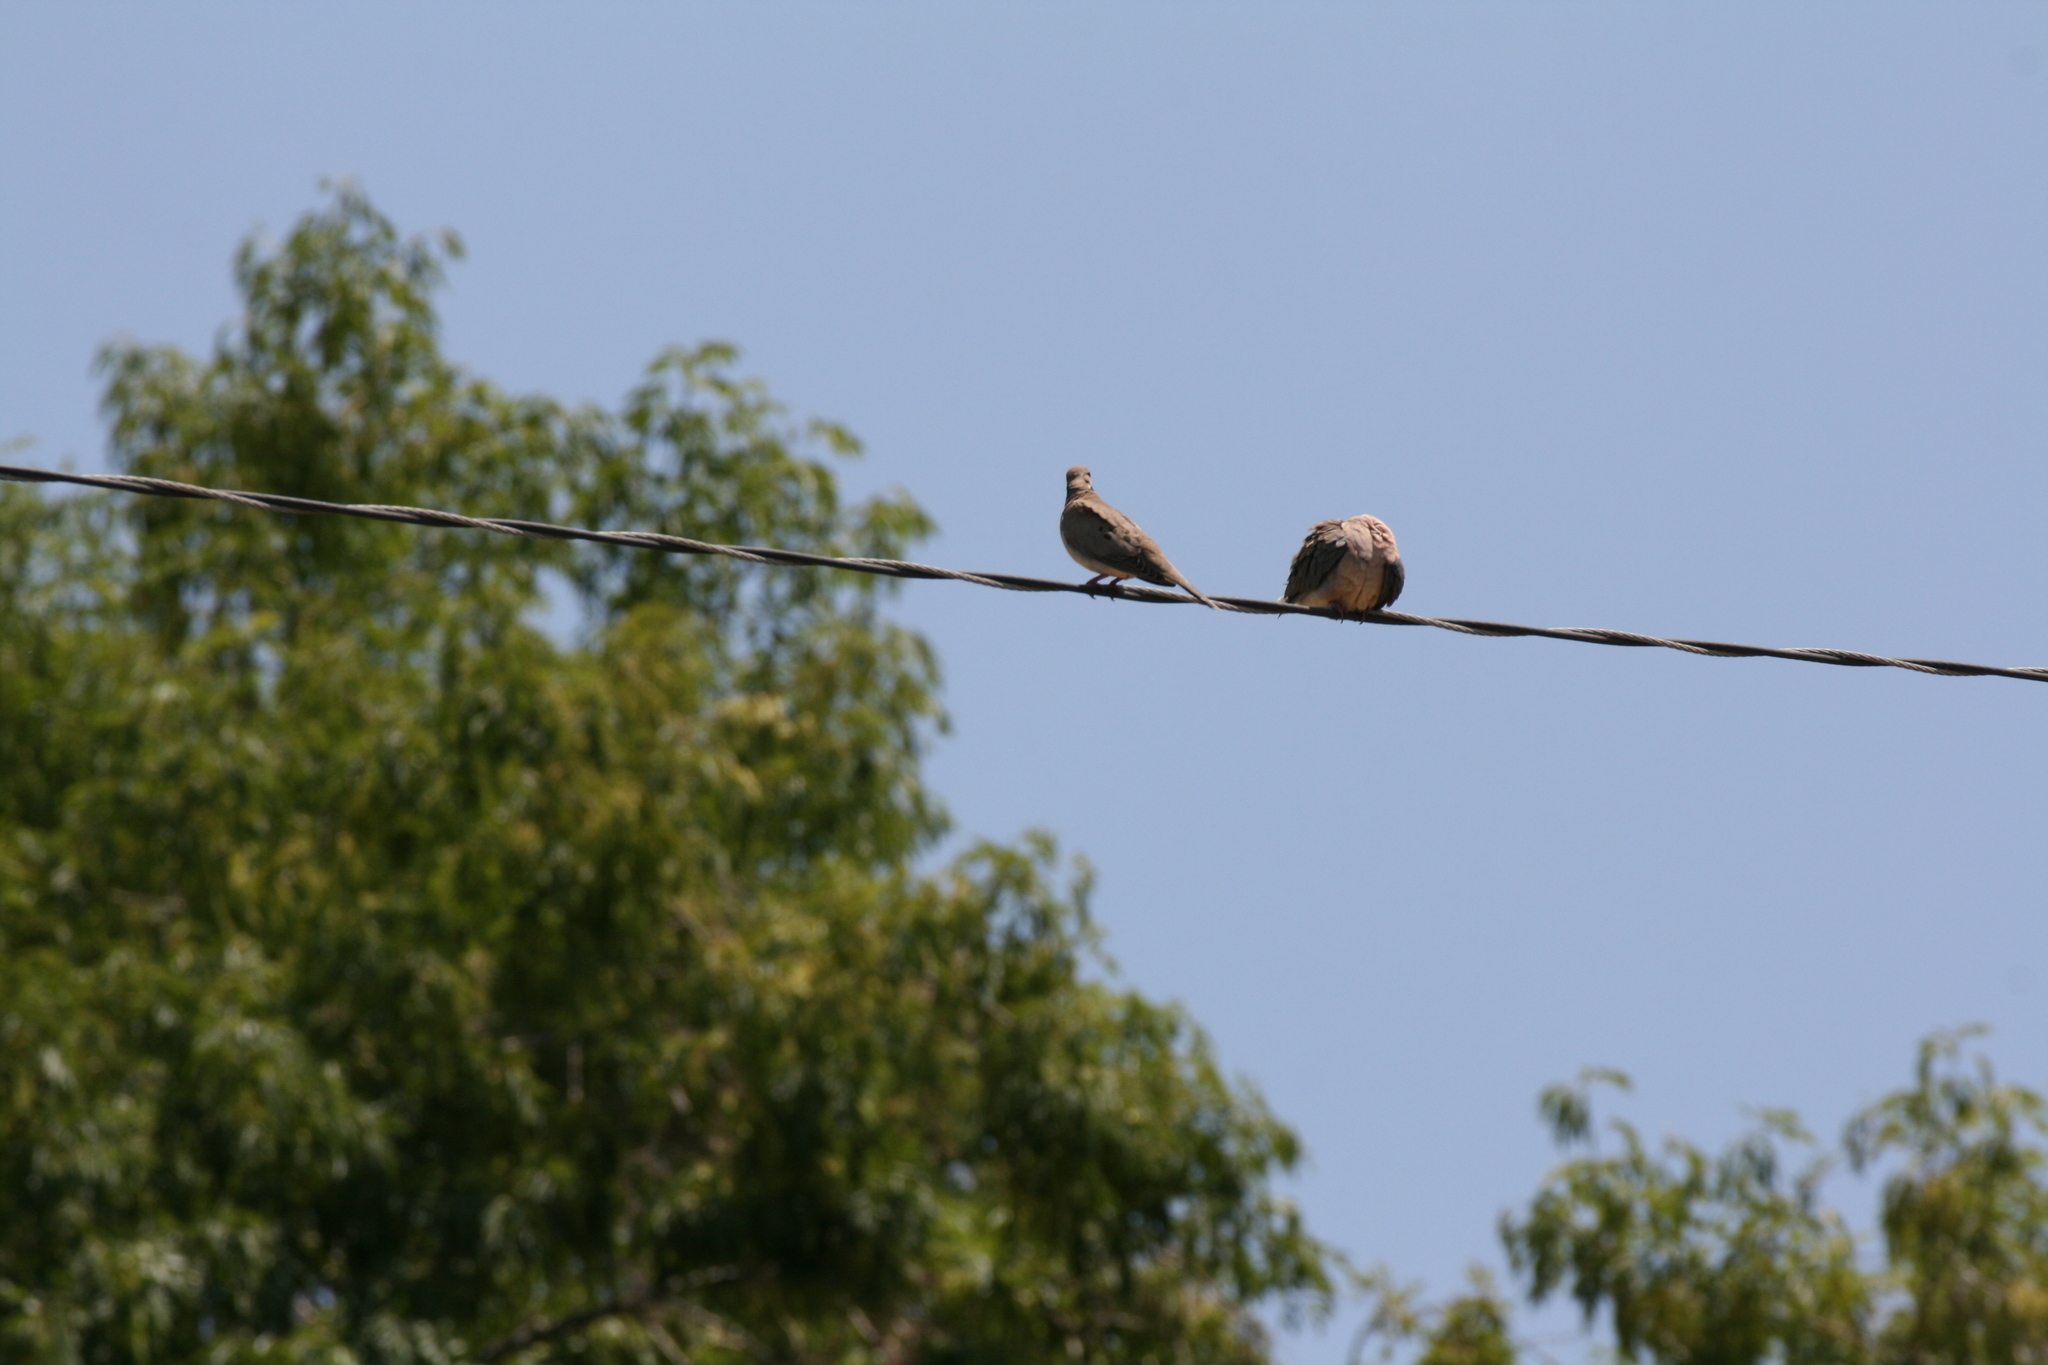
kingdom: Animalia
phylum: Chordata
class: Aves
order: Columbiformes
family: Columbidae
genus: Zenaida
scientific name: Zenaida macroura
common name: Mourning dove
